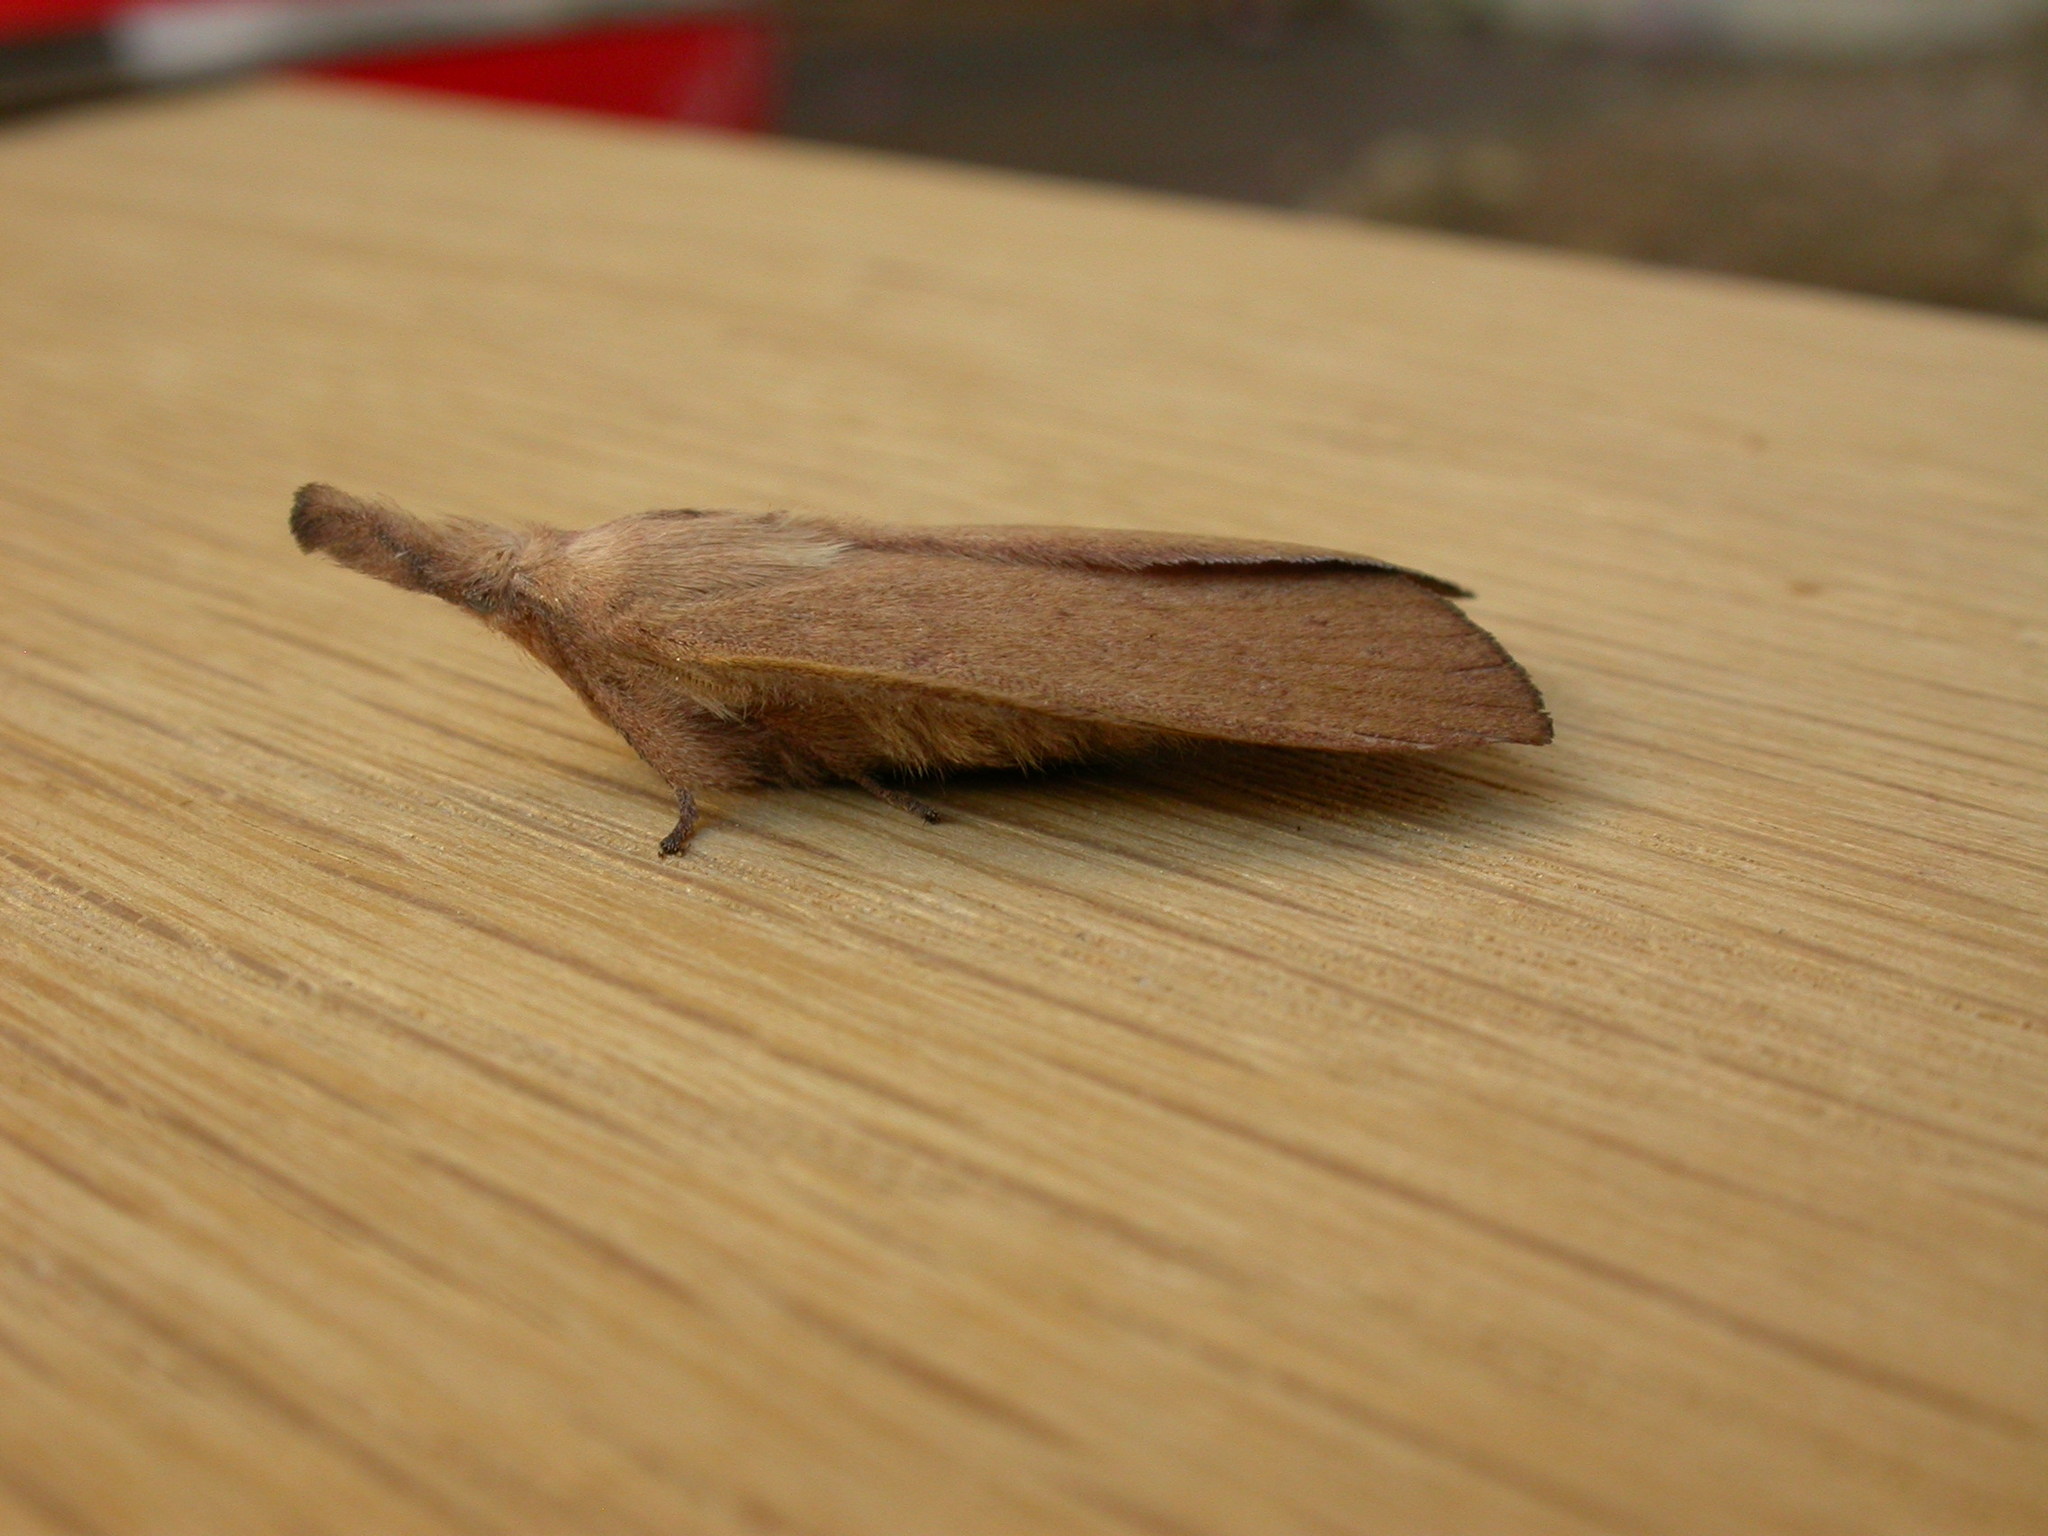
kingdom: Animalia
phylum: Arthropoda
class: Insecta
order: Lepidoptera
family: Lasiocampidae
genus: Pararguda
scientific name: Pararguda nasuta
